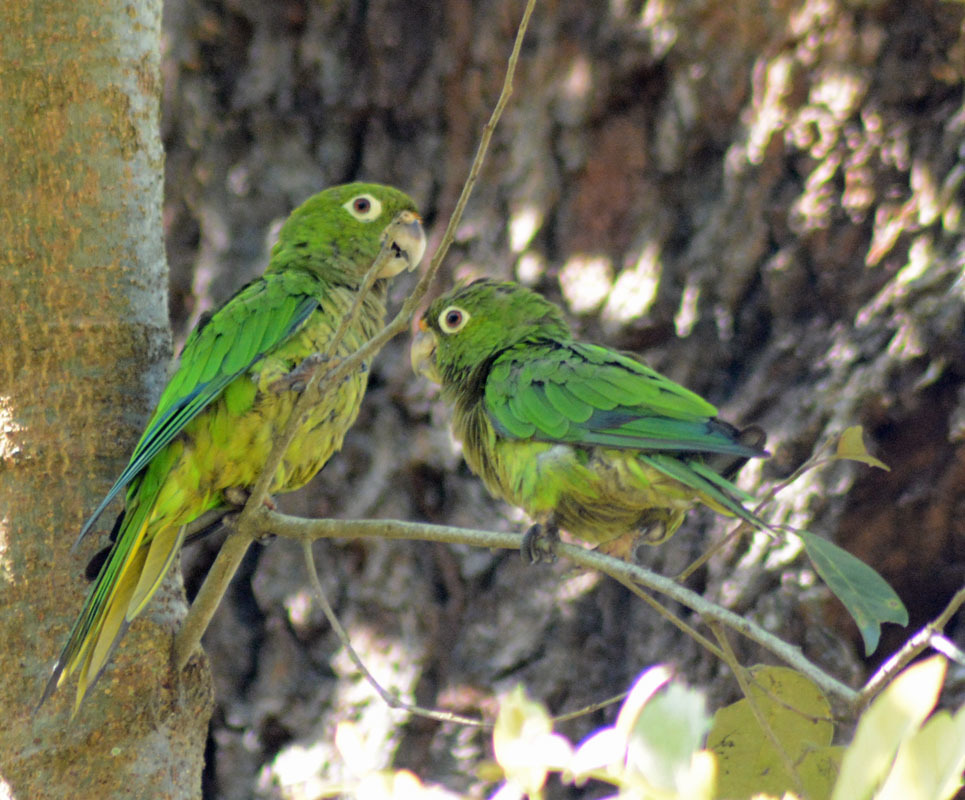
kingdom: Animalia
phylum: Chordata
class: Aves
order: Psittaciformes
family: Psittacidae
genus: Aratinga
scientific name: Aratinga nana
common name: Olive-throated parakeet
